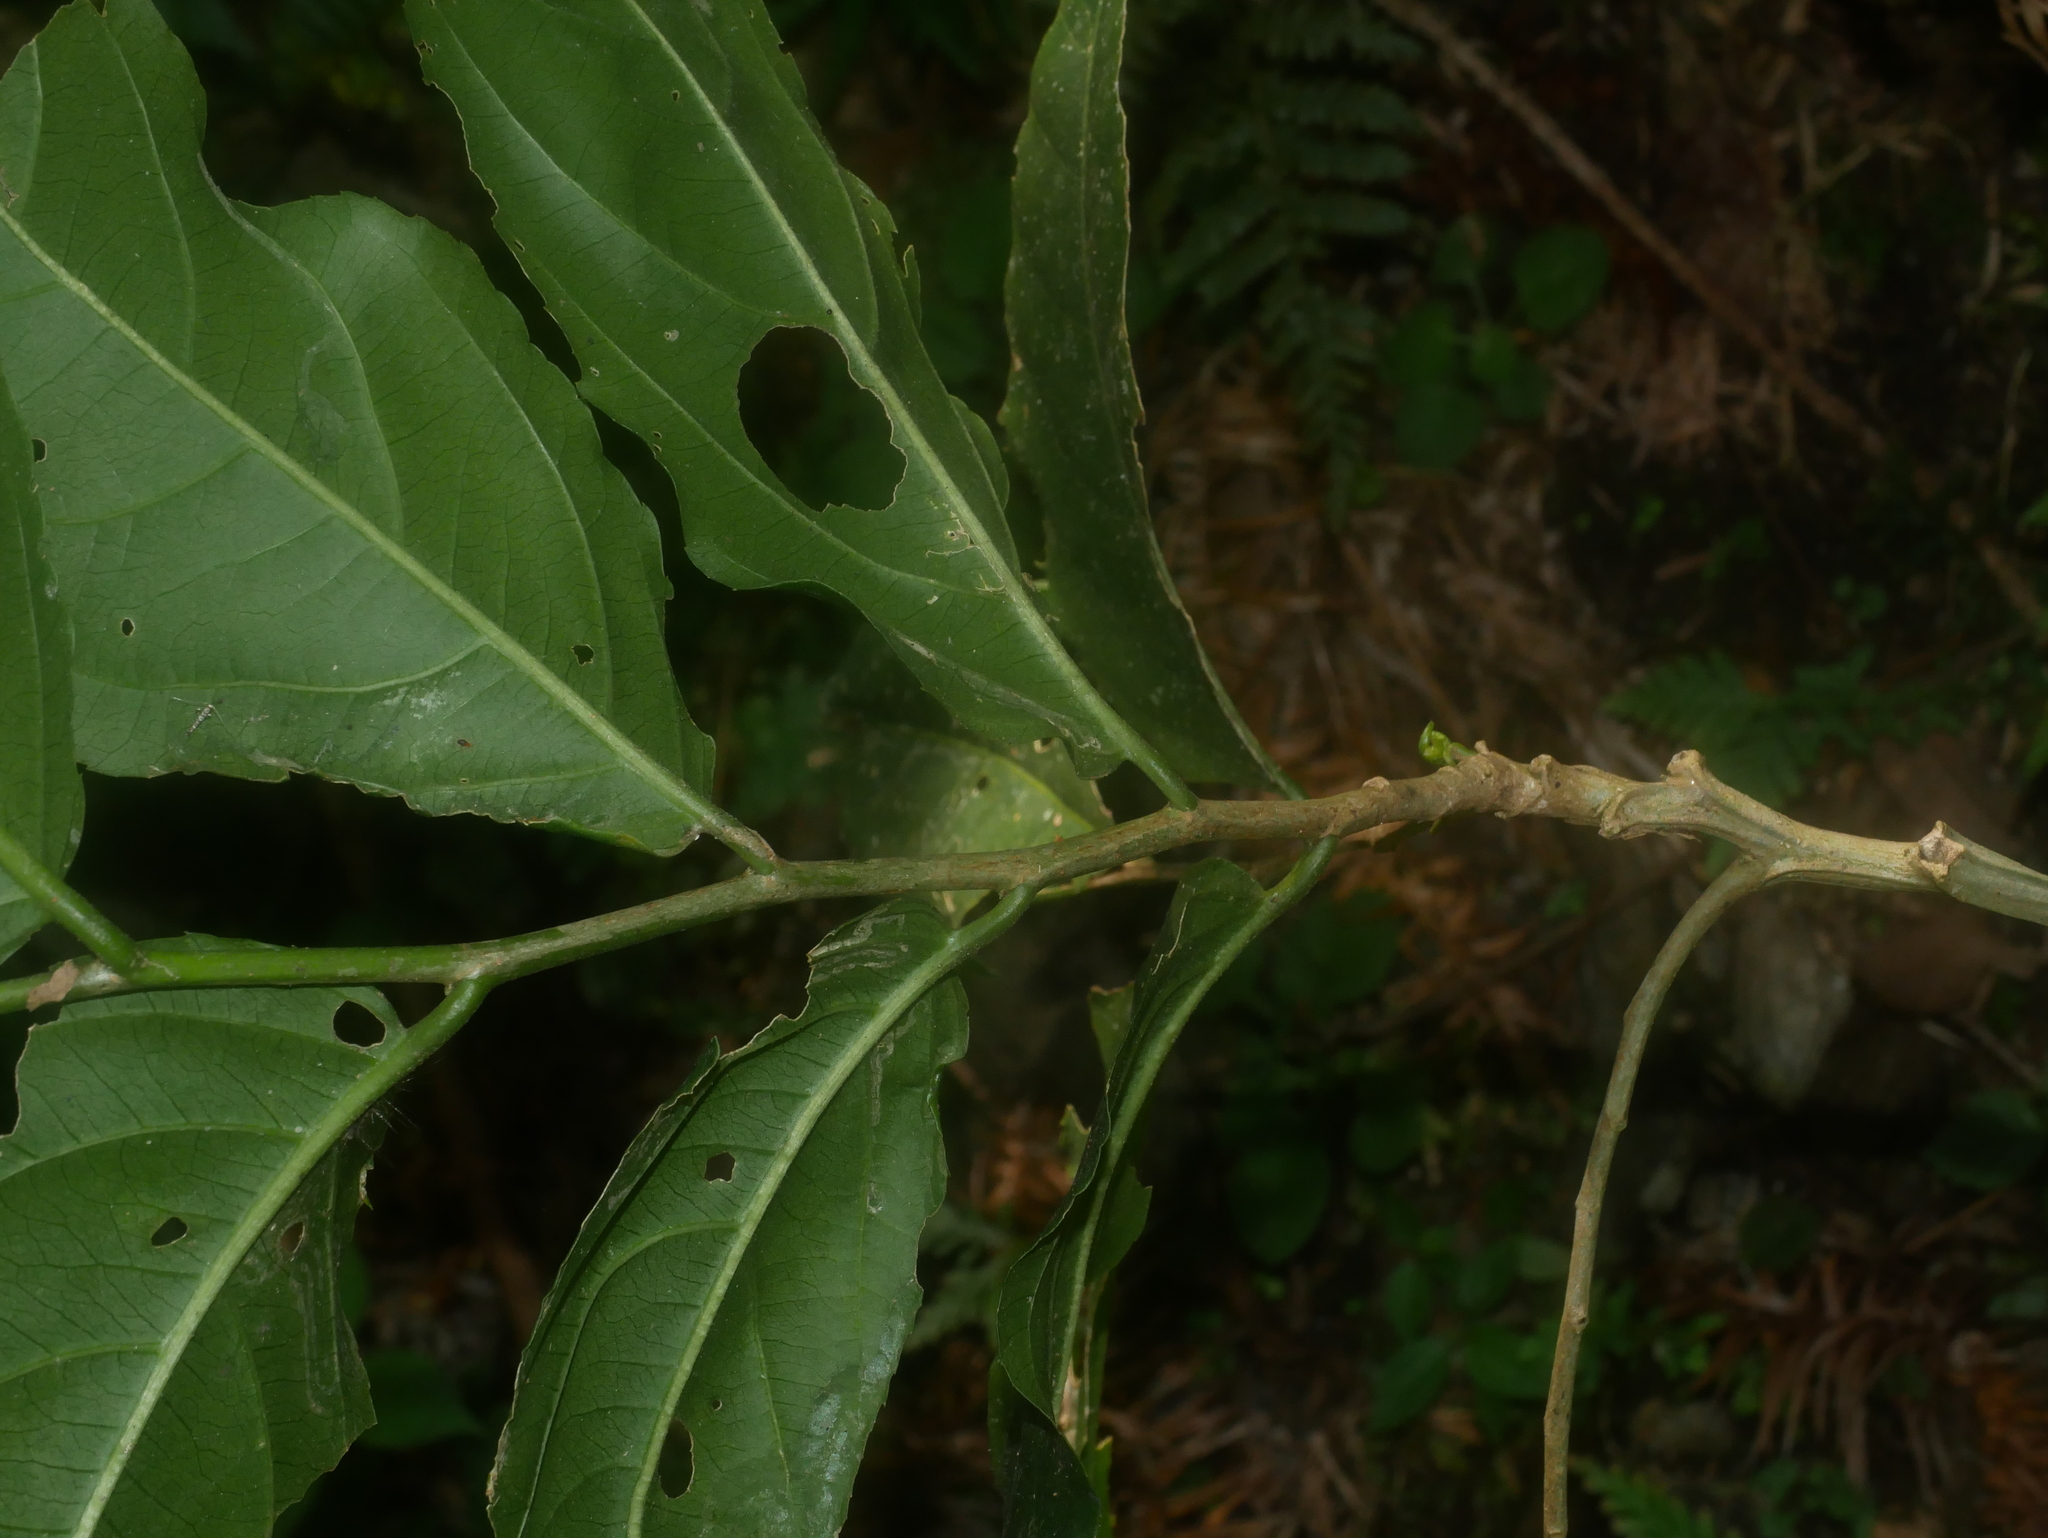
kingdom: Plantae
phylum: Tracheophyta
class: Magnoliopsida
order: Malpighiales
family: Salicaceae
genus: Casearia
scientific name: Casearia glomerata
